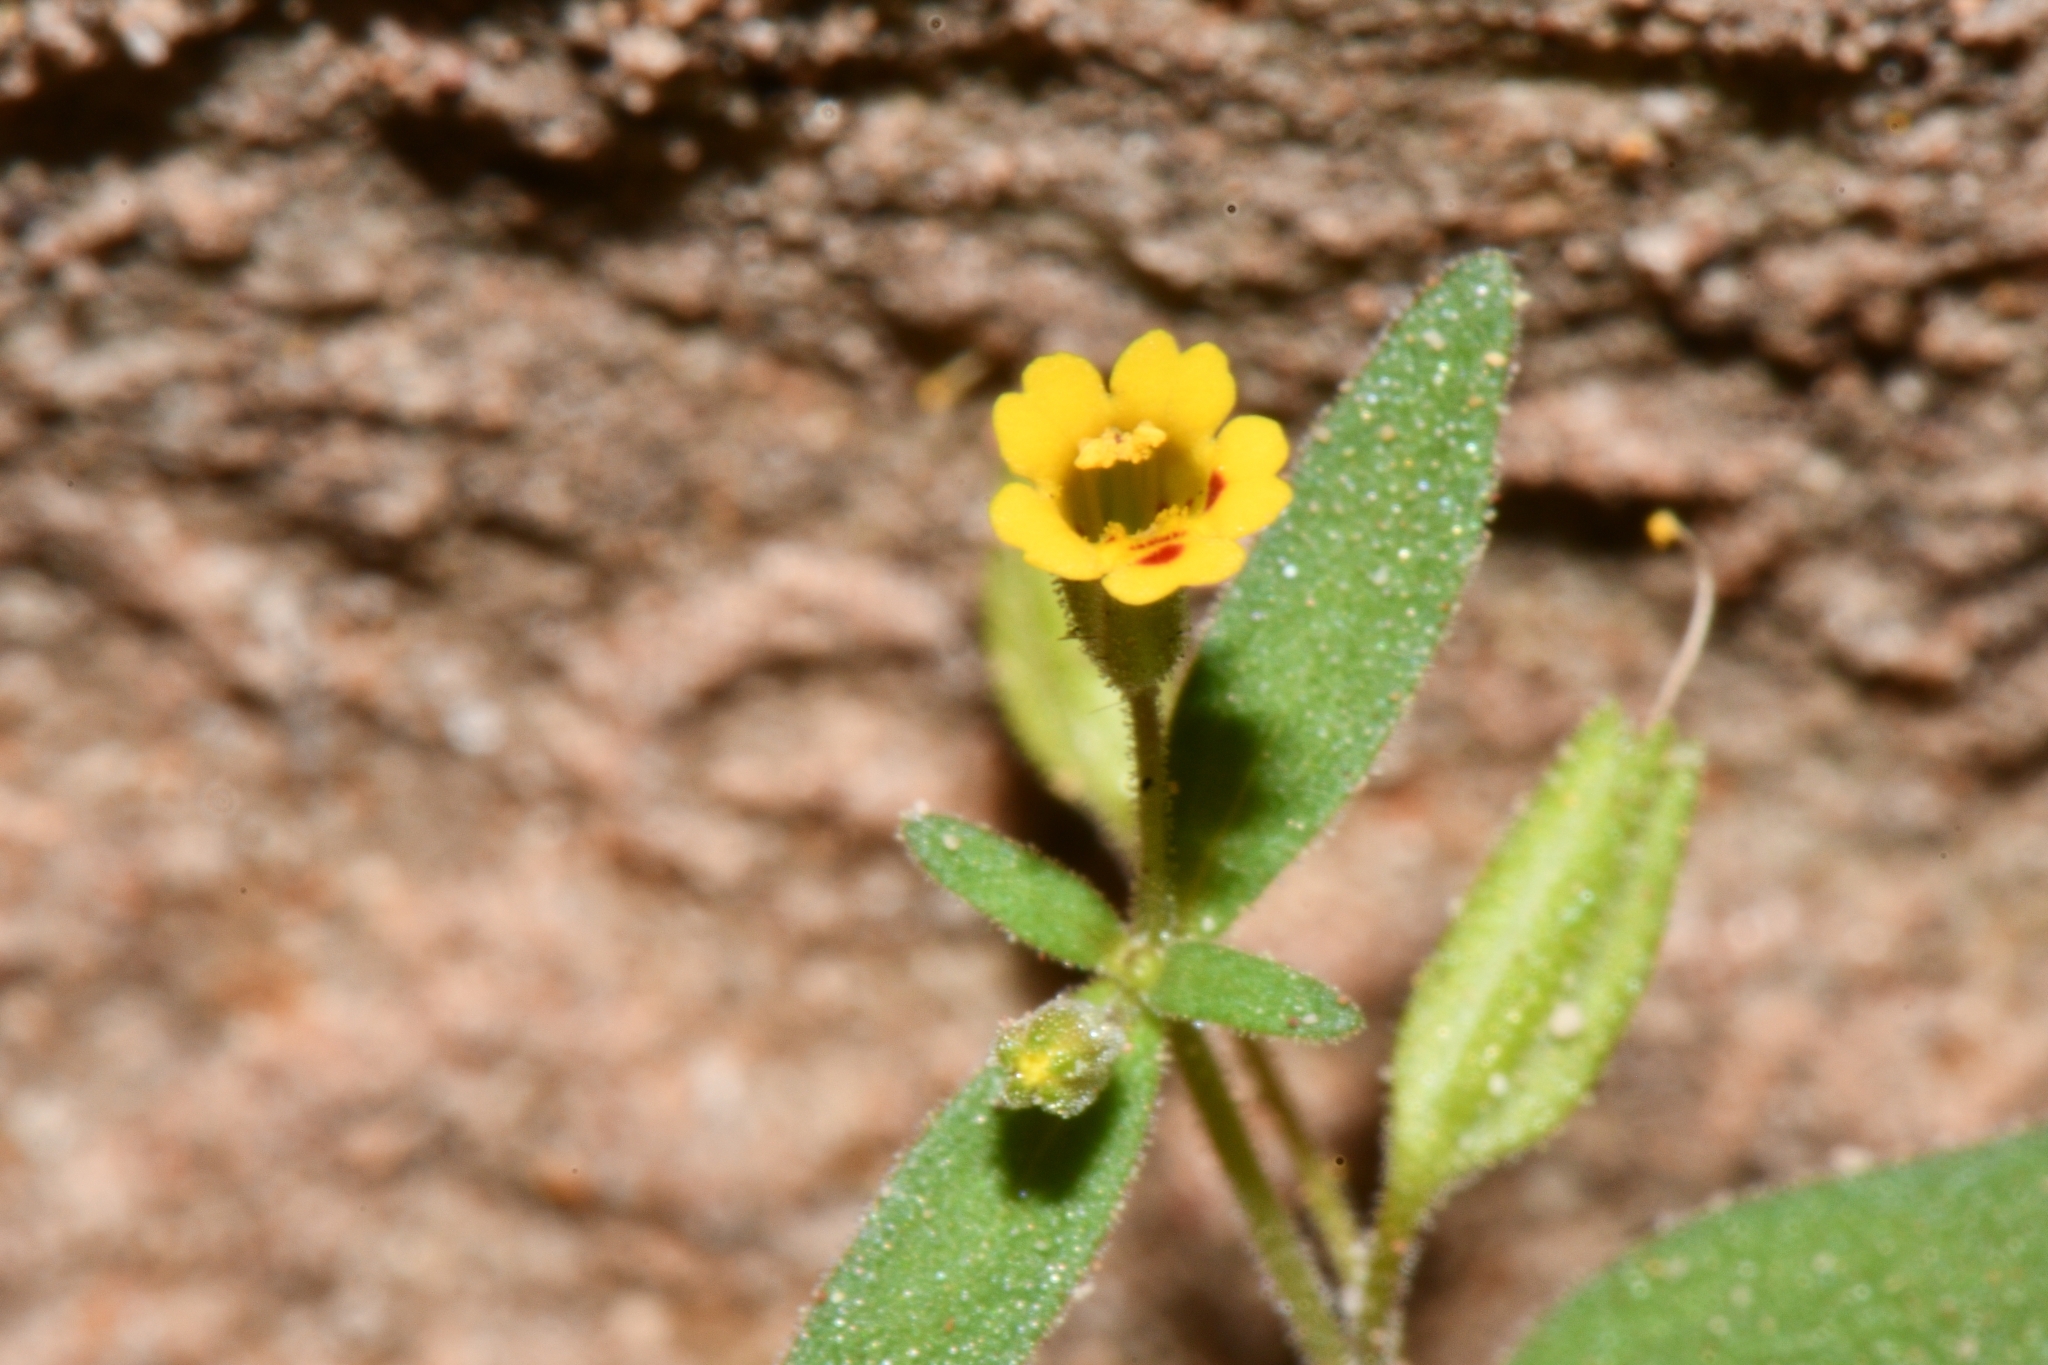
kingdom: Plantae
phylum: Tracheophyta
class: Magnoliopsida
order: Lamiales
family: Phrymaceae
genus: Erythranthe
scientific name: Erythranthe rubella
